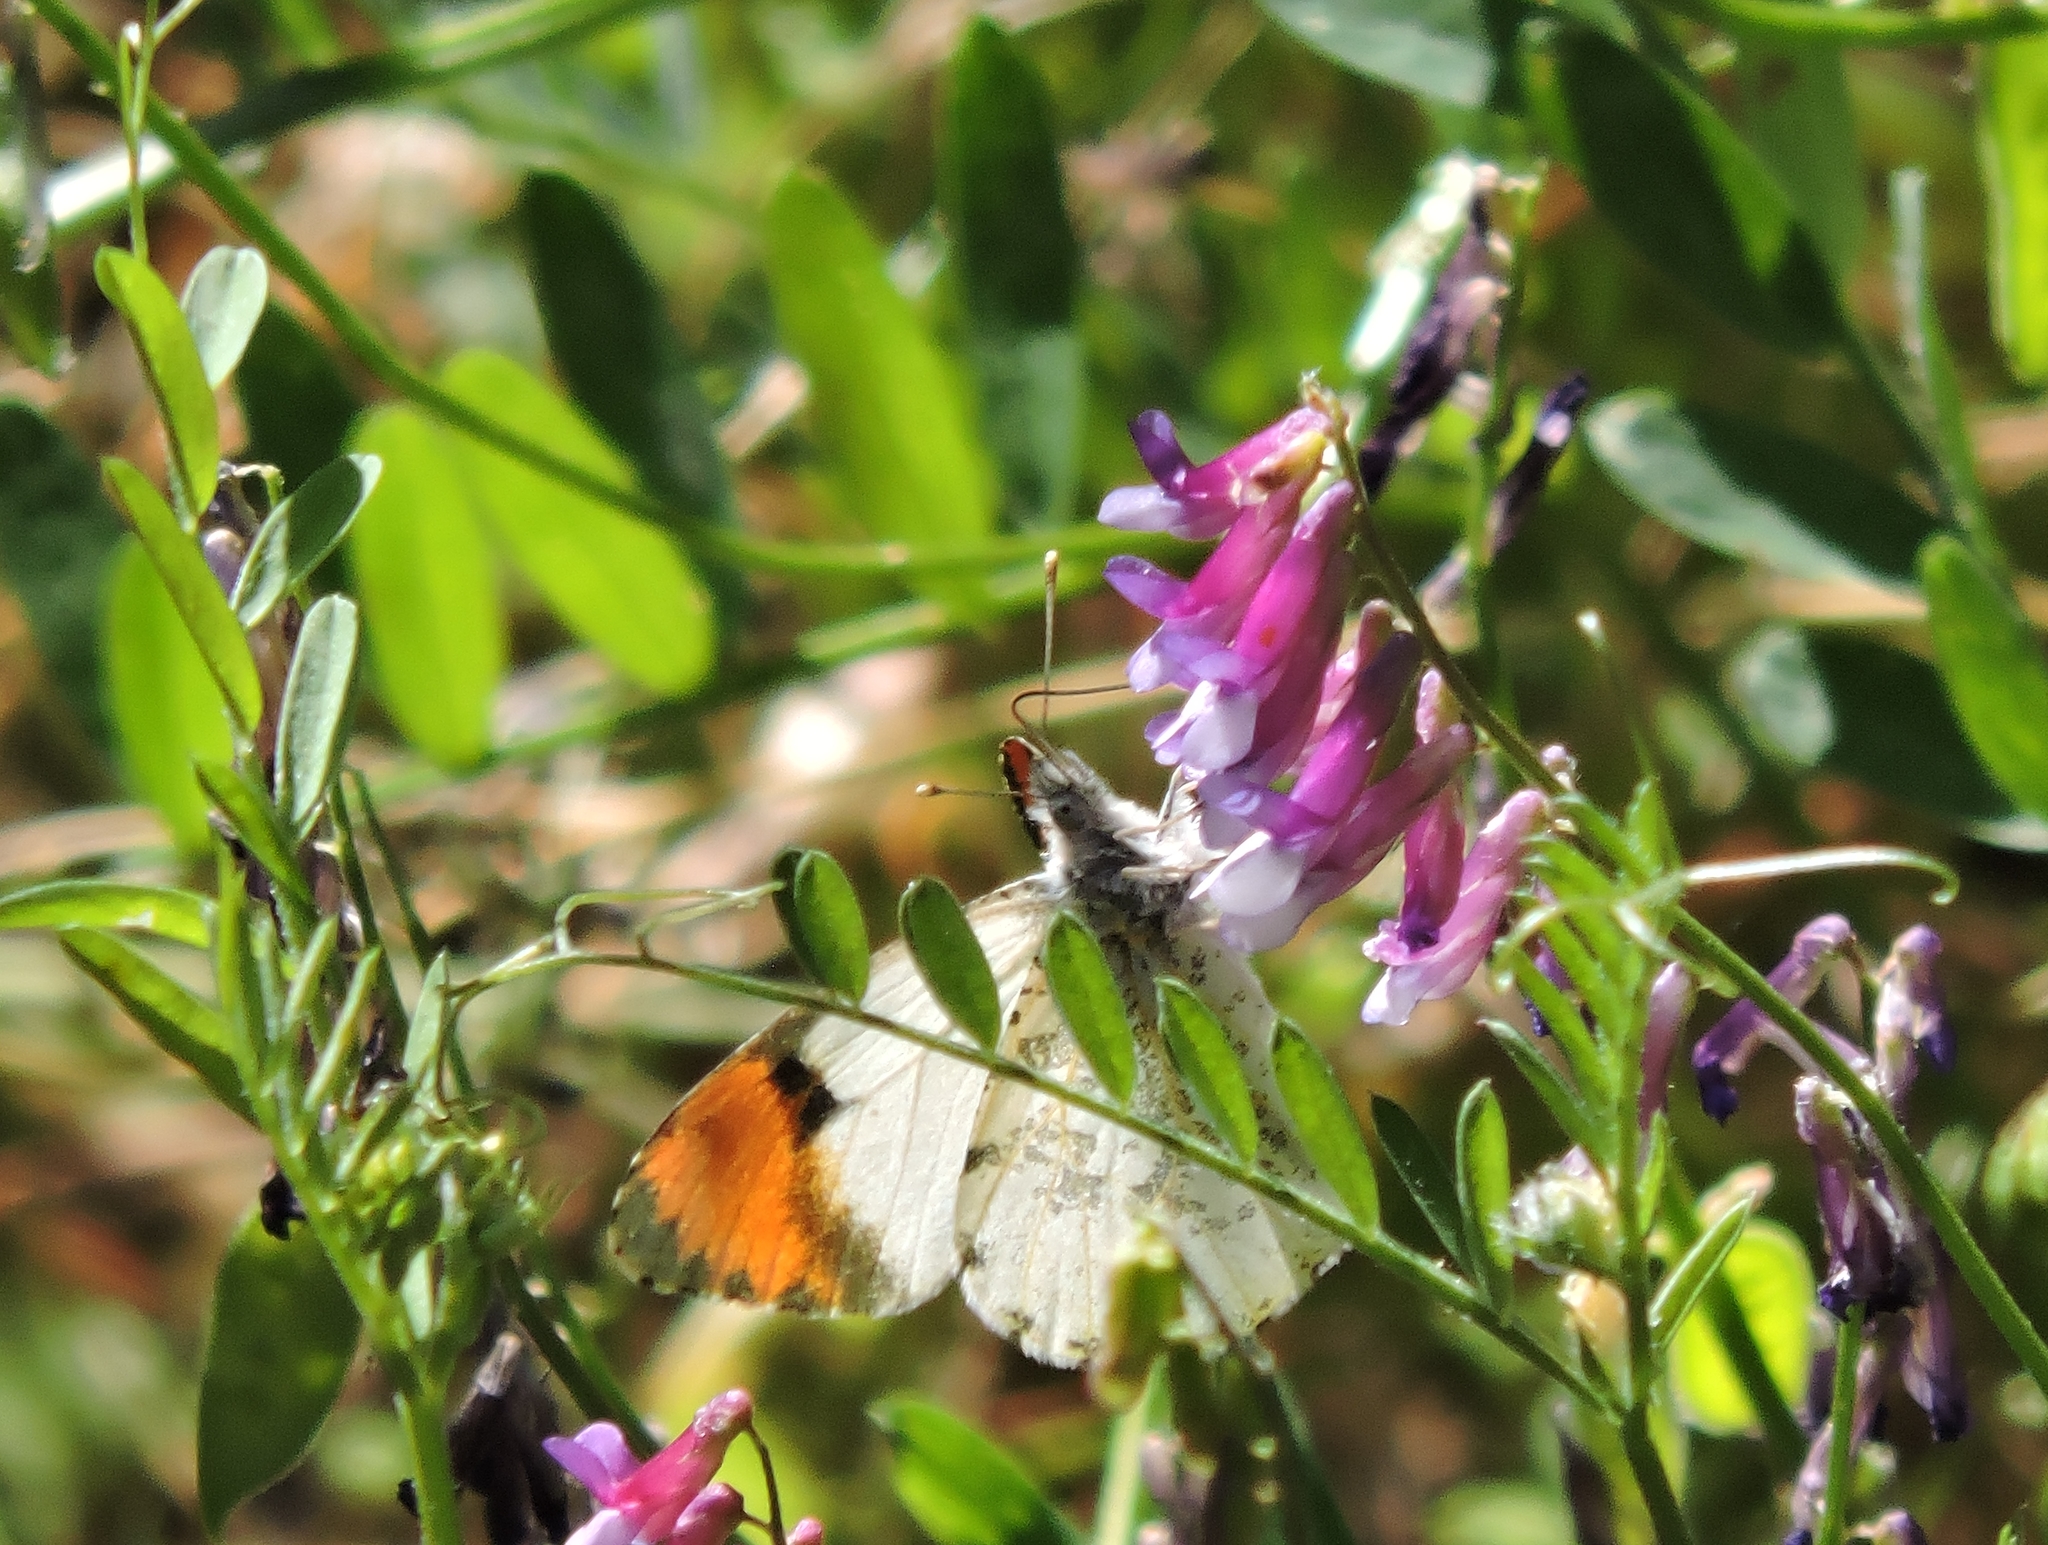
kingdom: Animalia
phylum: Arthropoda
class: Insecta
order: Lepidoptera
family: Pieridae
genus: Anthocharis
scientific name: Anthocharis sara
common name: Sara's orangetip
